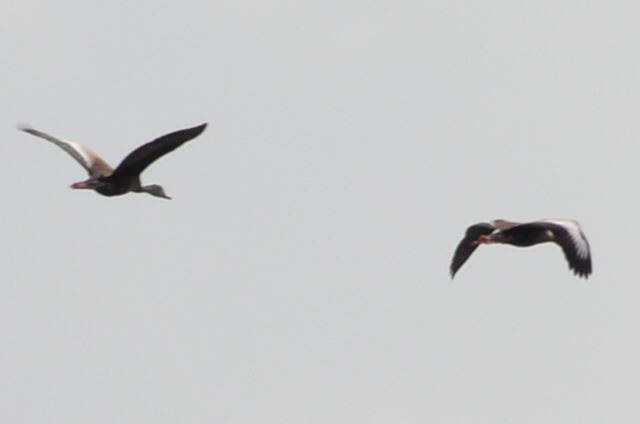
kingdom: Animalia
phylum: Chordata
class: Aves
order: Anseriformes
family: Anatidae
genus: Dendrocygna
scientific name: Dendrocygna autumnalis
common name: Black-bellied whistling duck
